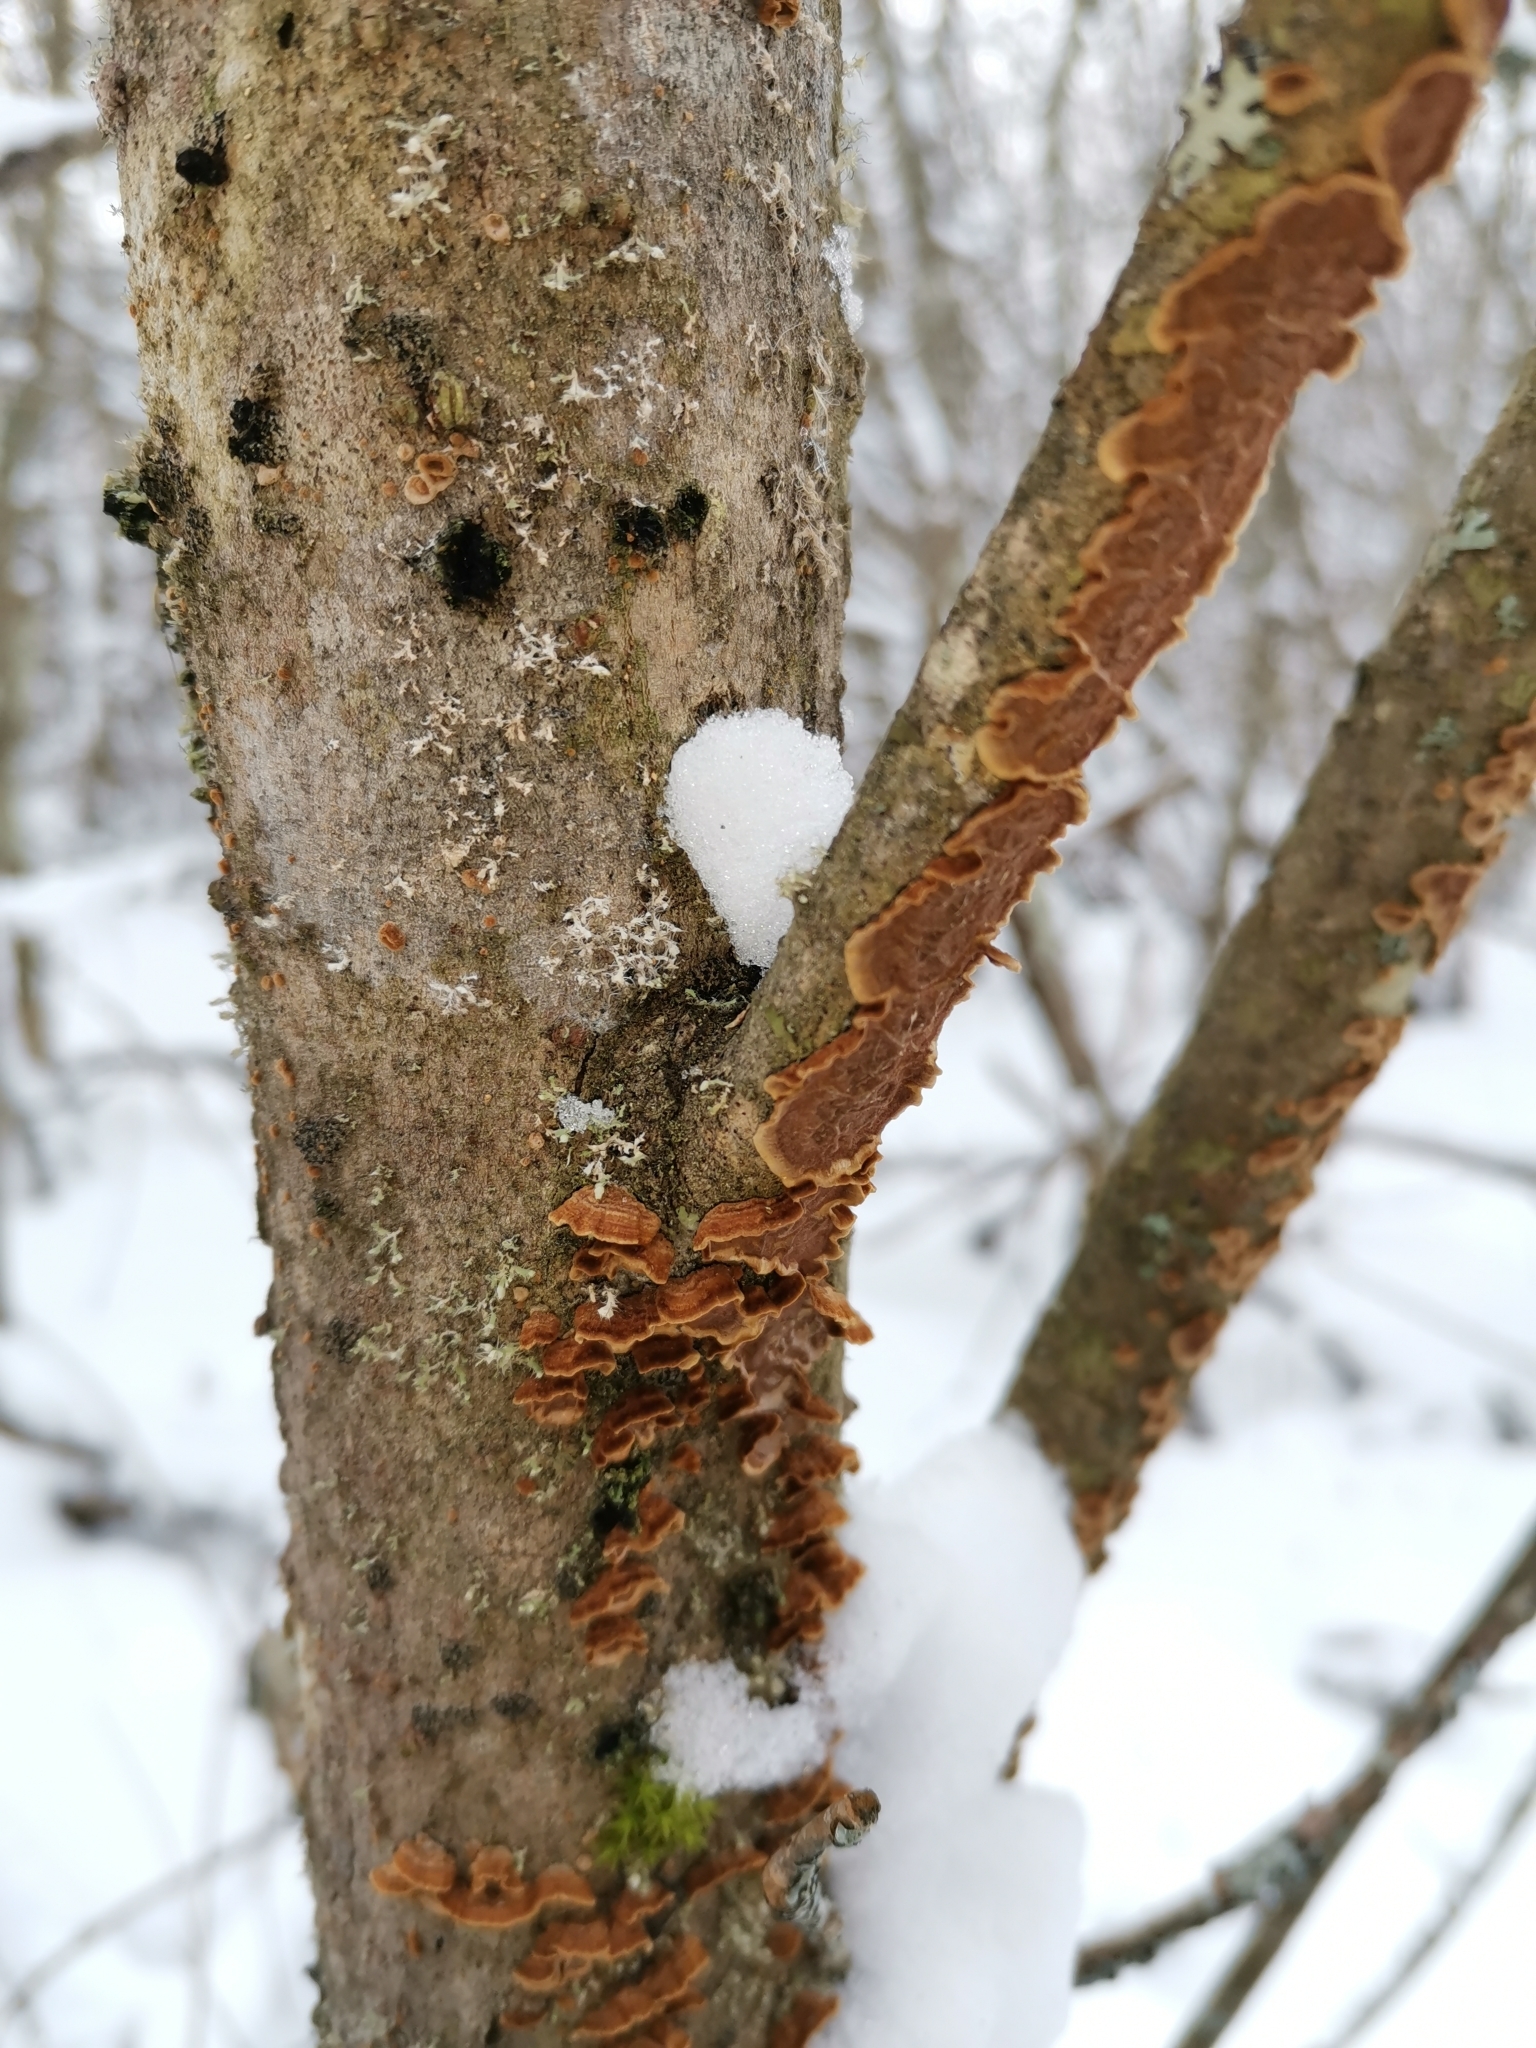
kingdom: Fungi
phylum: Basidiomycota
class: Agaricomycetes
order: Hymenochaetales
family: Hymenochaetaceae
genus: Hydnoporia
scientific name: Hydnoporia tabacina
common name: Willow glue
